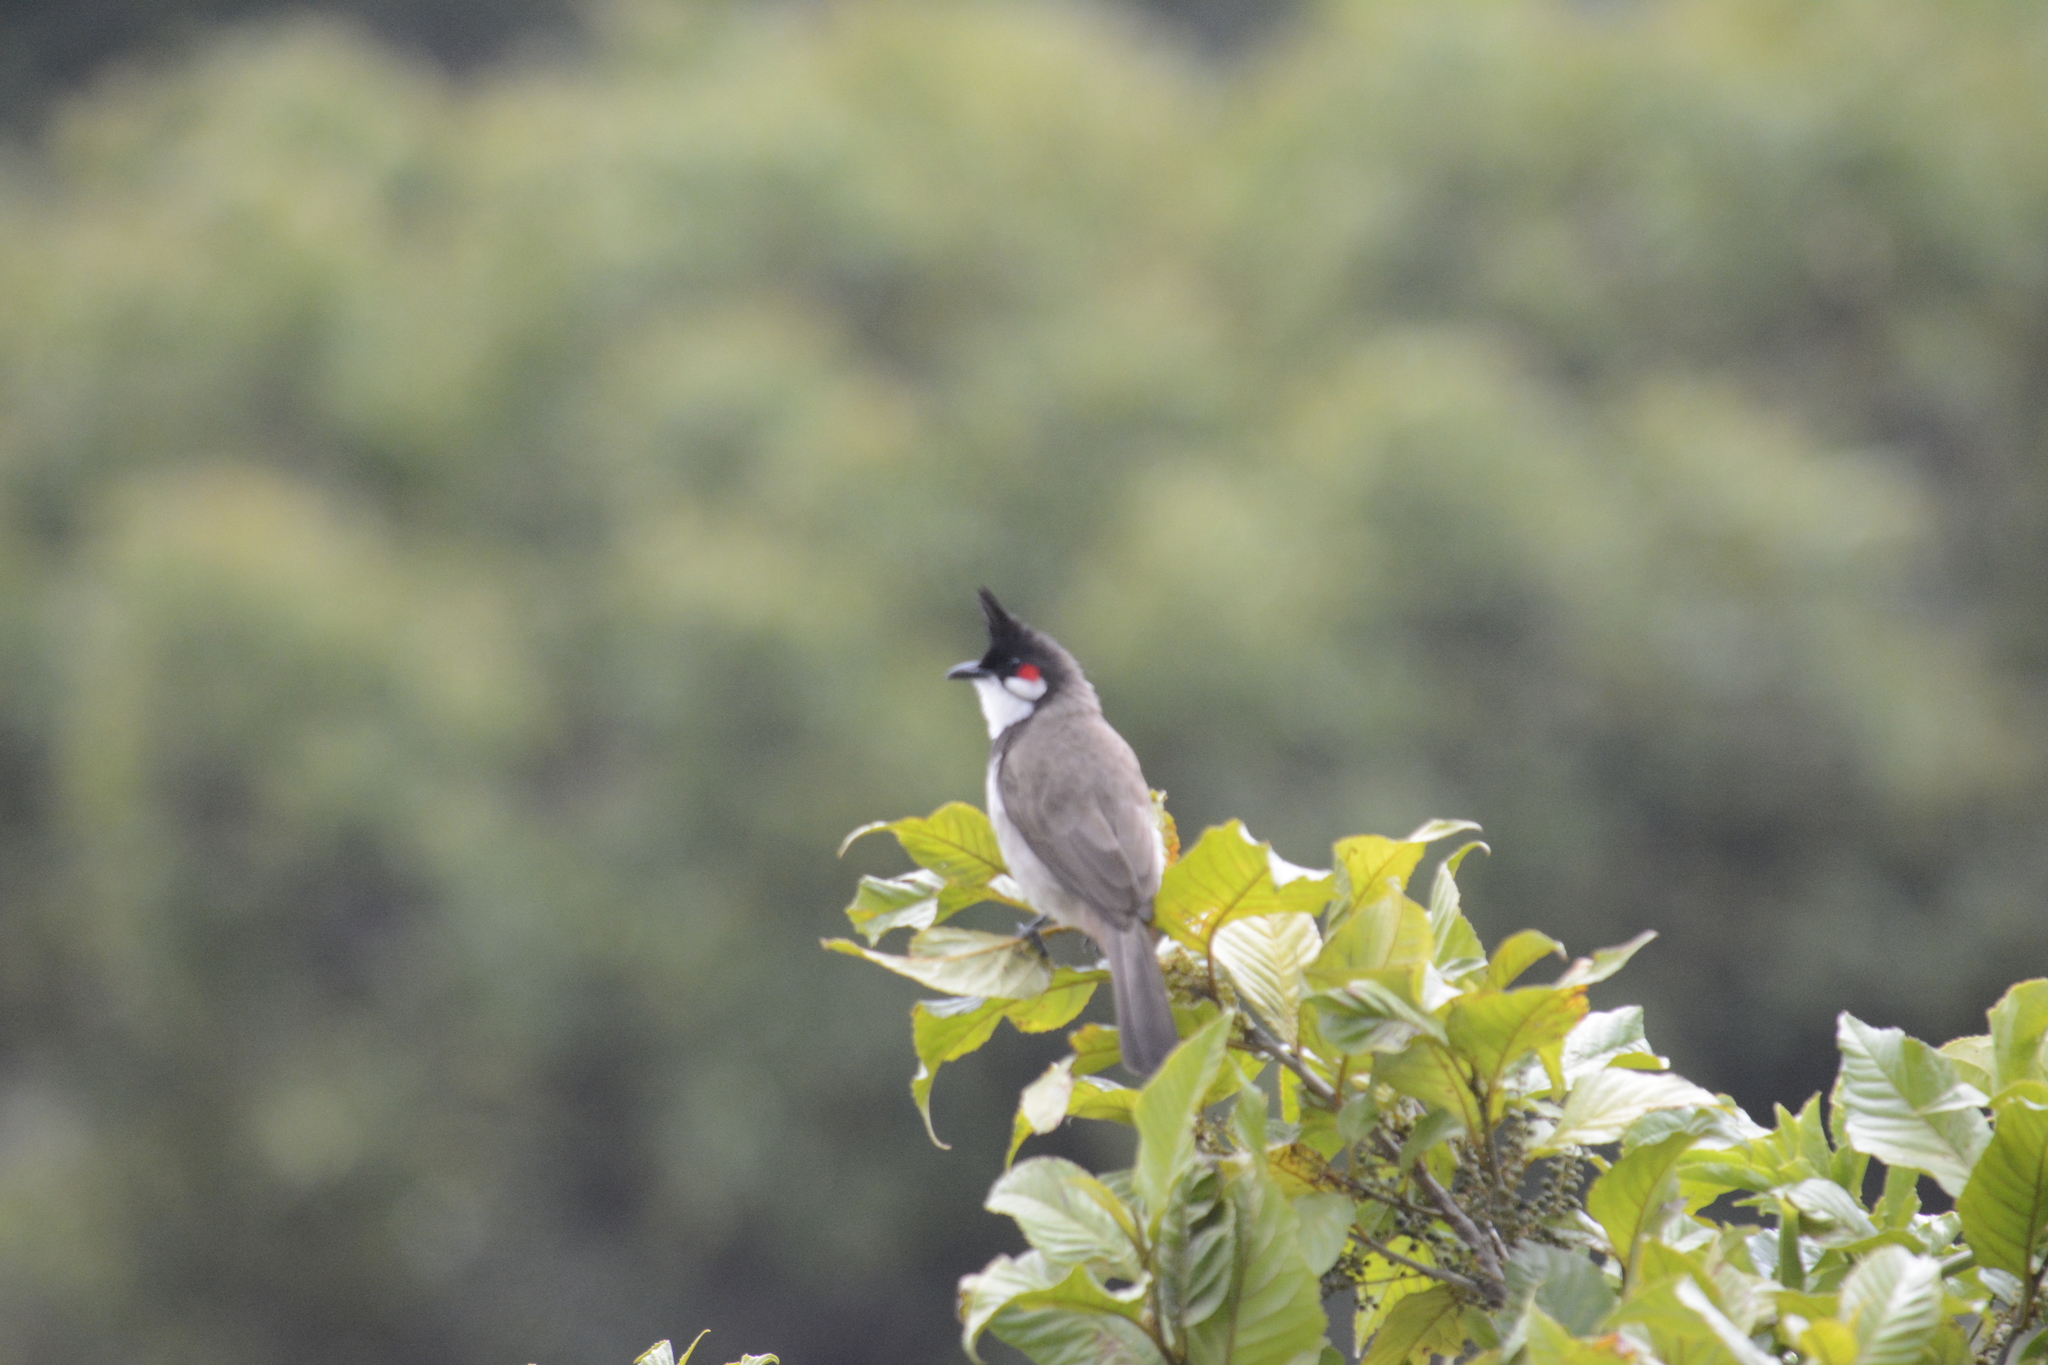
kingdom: Animalia
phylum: Chordata
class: Aves
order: Passeriformes
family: Pycnonotidae
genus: Pycnonotus
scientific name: Pycnonotus jocosus
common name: Red-whiskered bulbul
